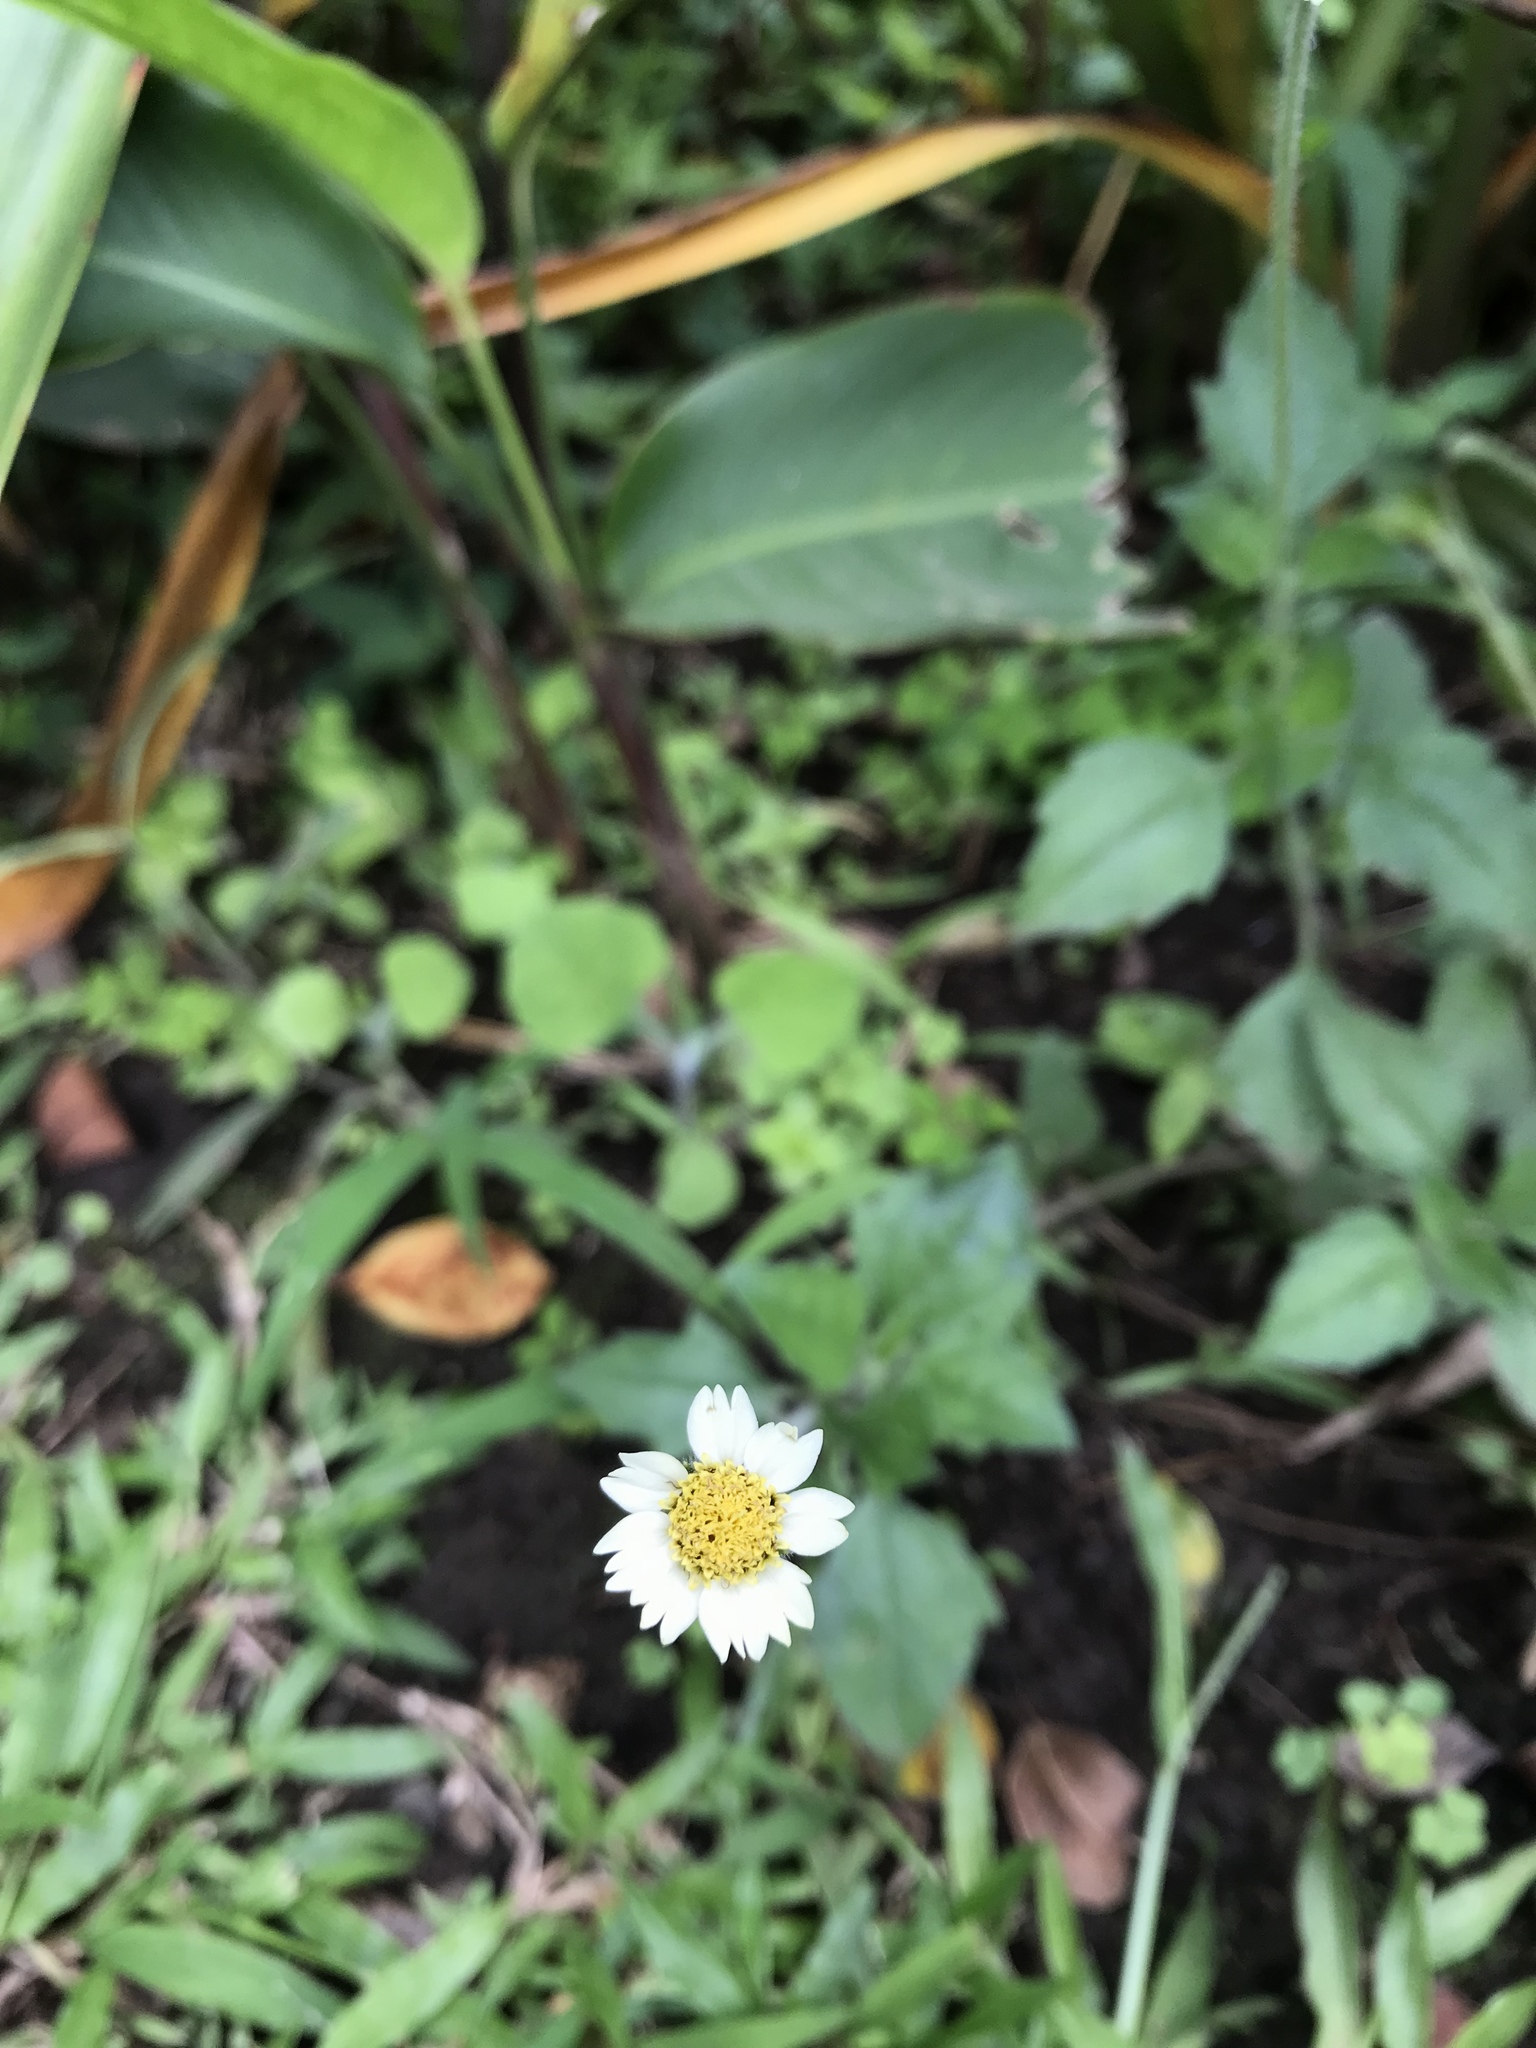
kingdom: Plantae
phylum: Tracheophyta
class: Magnoliopsida
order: Asterales
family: Asteraceae
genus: Tridax
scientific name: Tridax procumbens
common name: Coatbuttons
